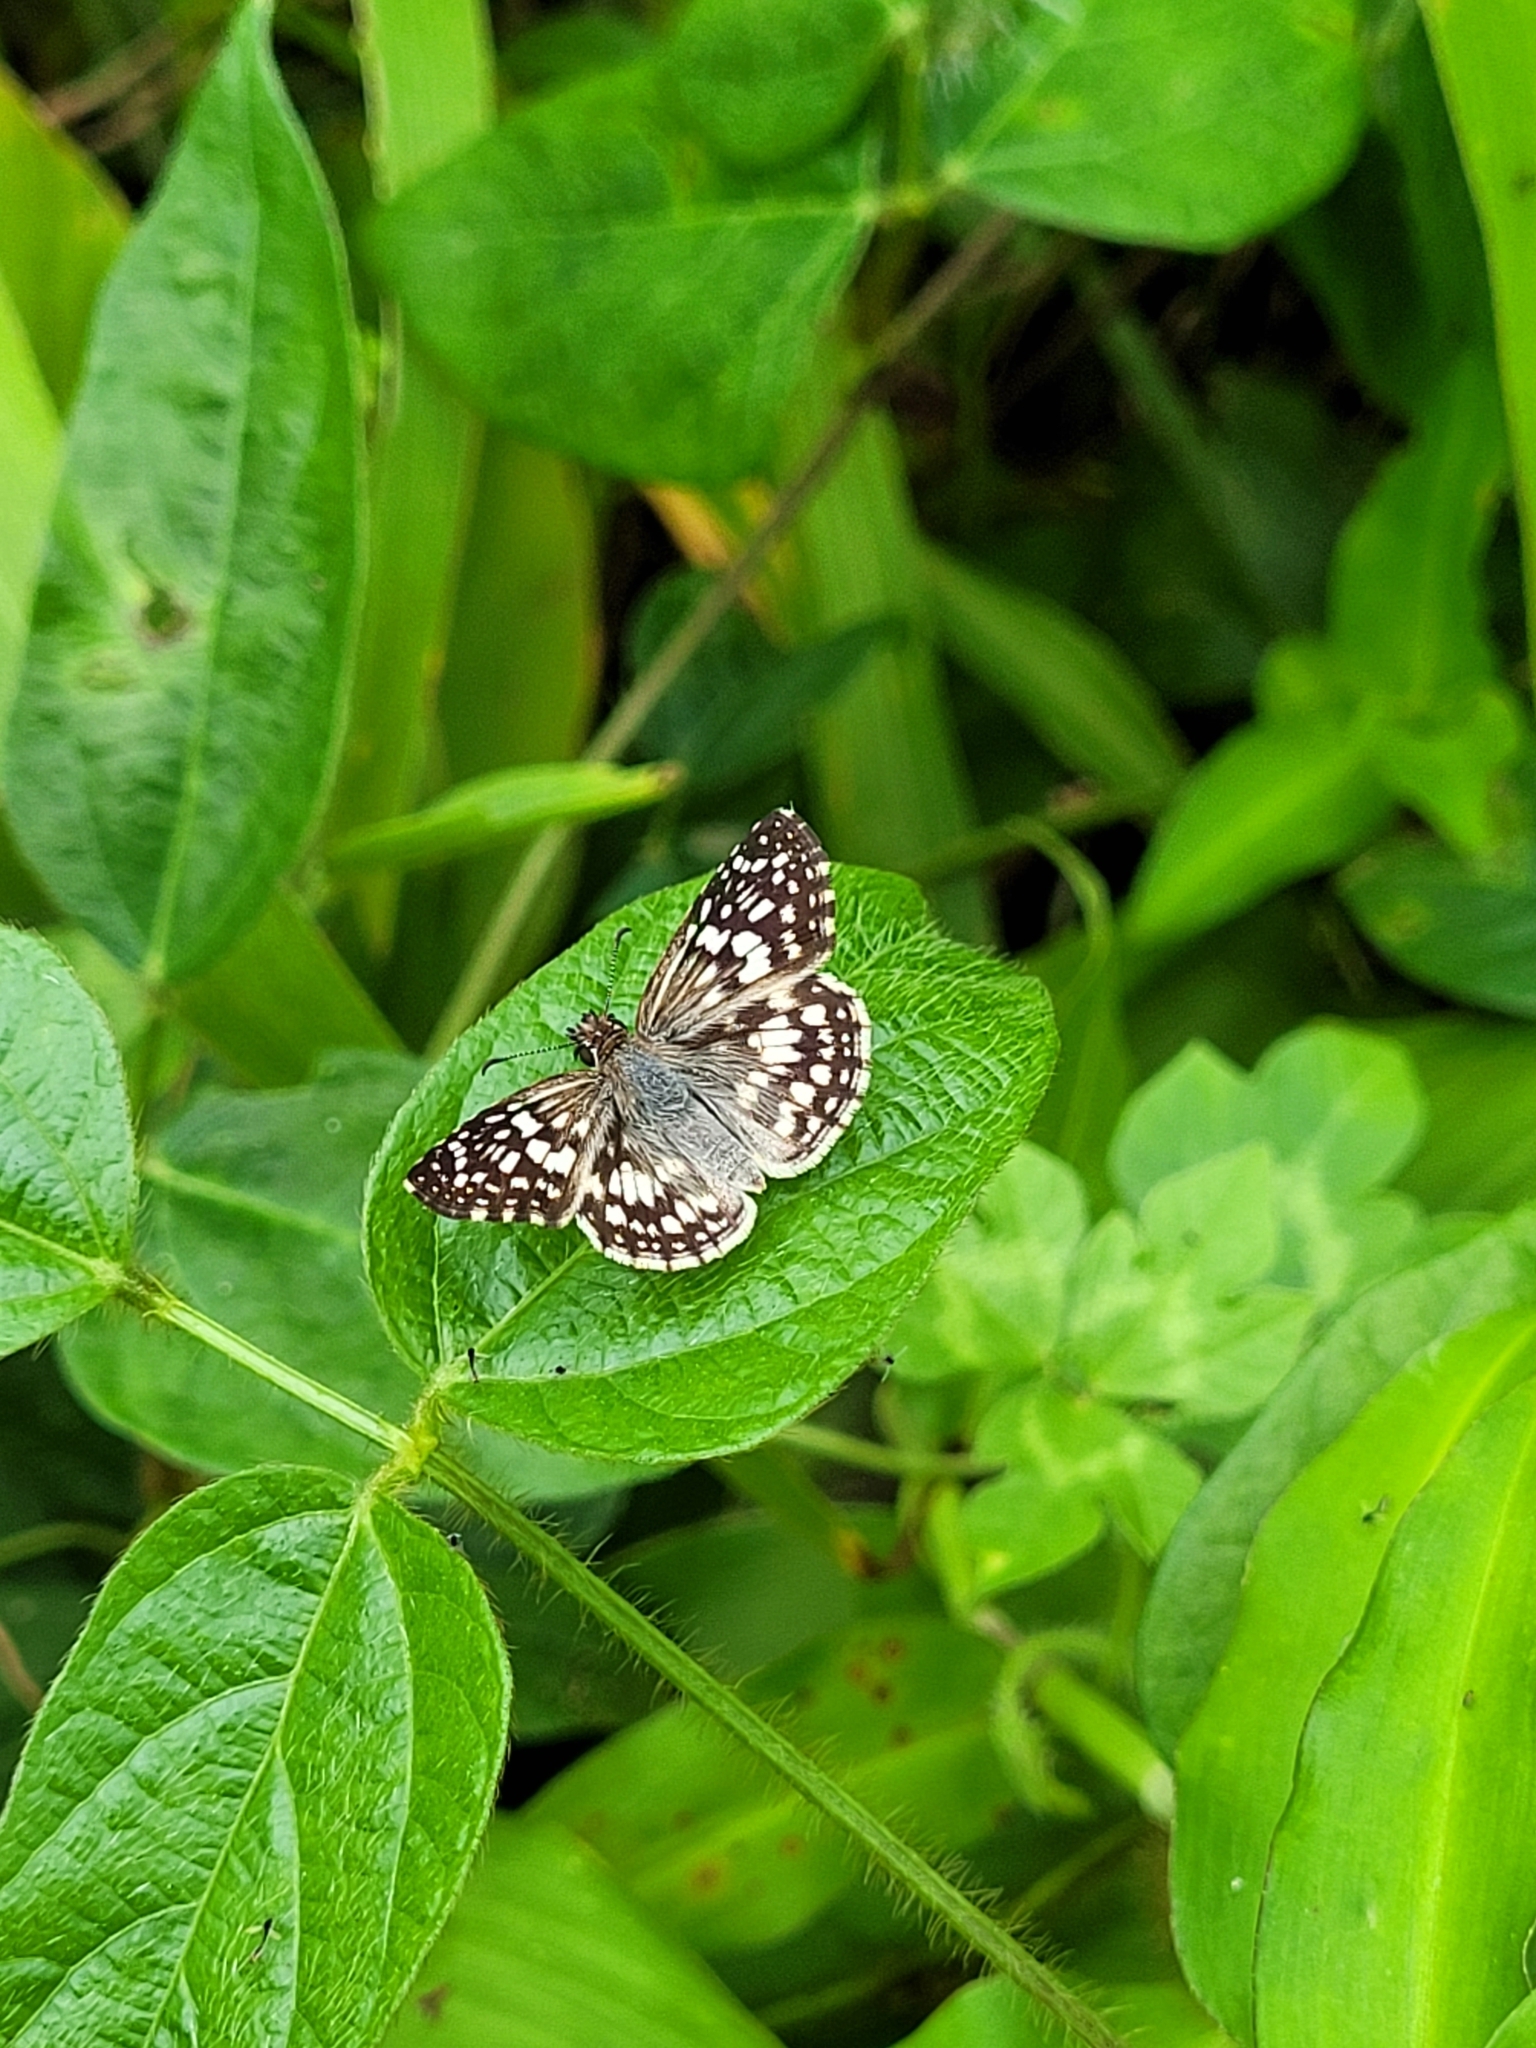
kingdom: Animalia
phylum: Arthropoda
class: Insecta
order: Lepidoptera
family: Hesperiidae
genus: Pyrgus
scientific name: Pyrgus oileus
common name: Tropical checkered-skipper
